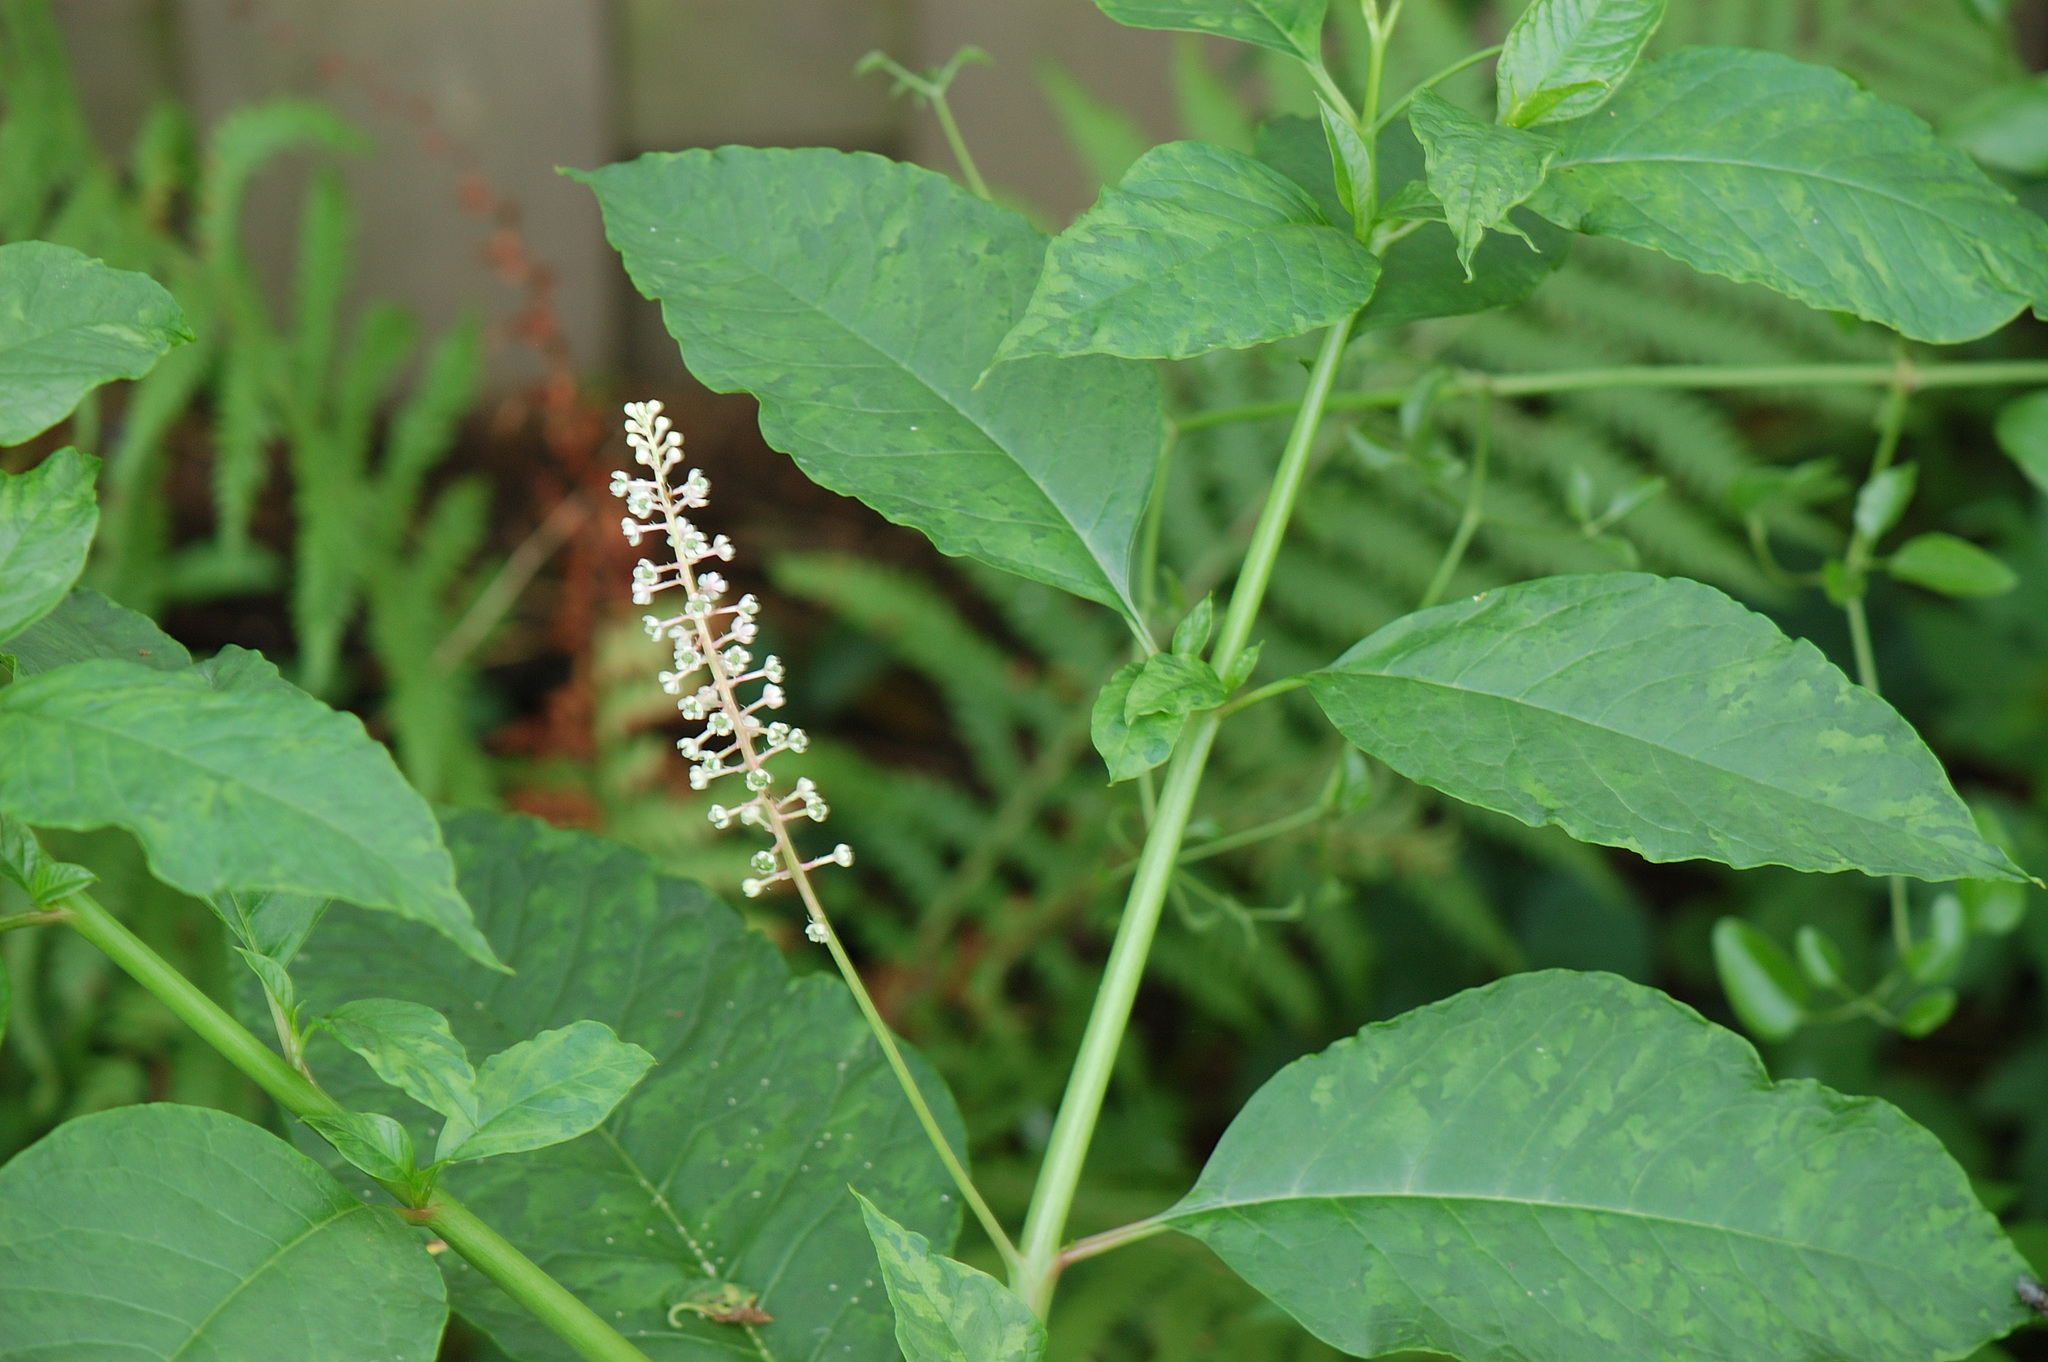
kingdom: Plantae
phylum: Tracheophyta
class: Magnoliopsida
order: Caryophyllales
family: Phytolaccaceae
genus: Phytolacca
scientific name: Phytolacca americana
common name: American pokeweed
